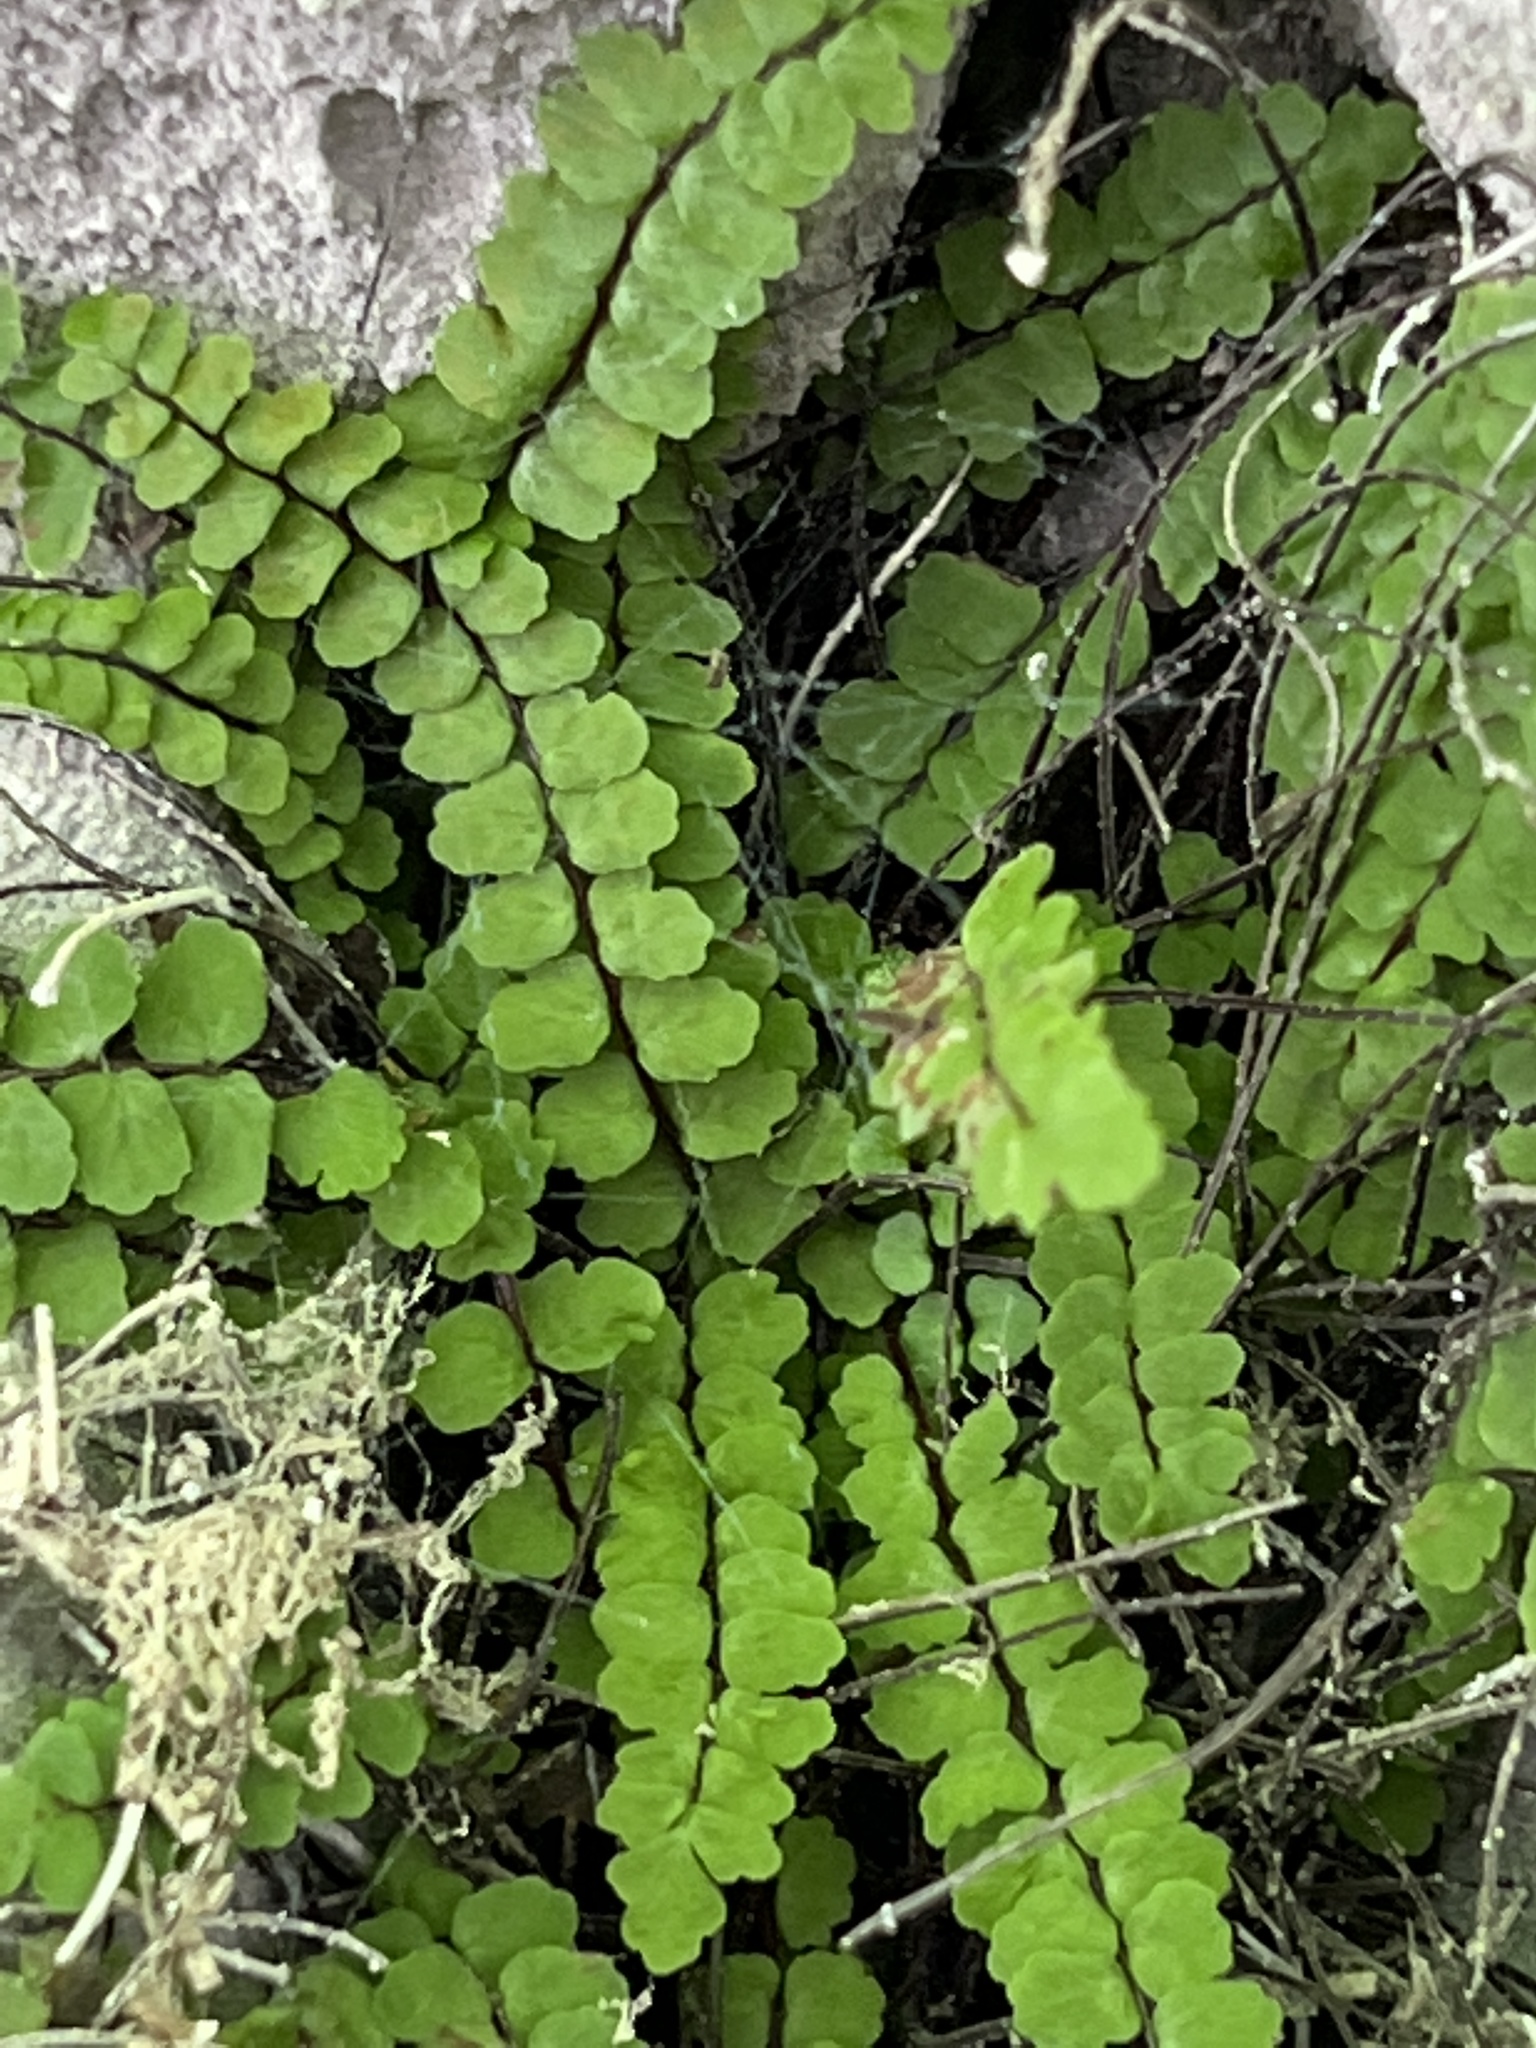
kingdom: Plantae
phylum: Tracheophyta
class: Polypodiopsida
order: Polypodiales
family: Aspleniaceae
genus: Asplenium
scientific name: Asplenium trichomanes
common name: Maidenhair spleenwort
